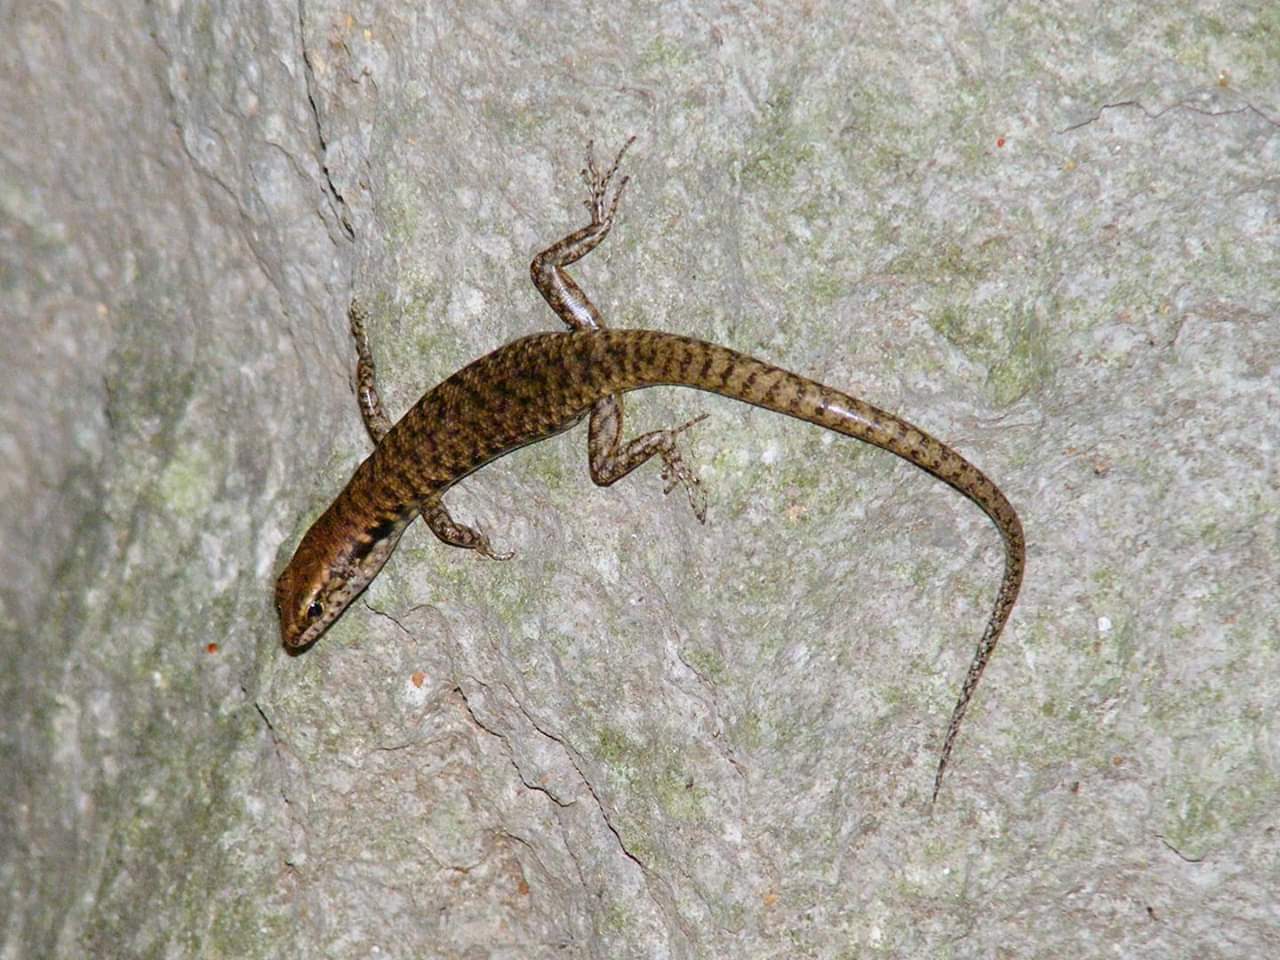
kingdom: Animalia
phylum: Chordata
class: Squamata
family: Scincidae
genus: Concinnia
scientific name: Concinnia brachysoma
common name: Northern barsided skink
